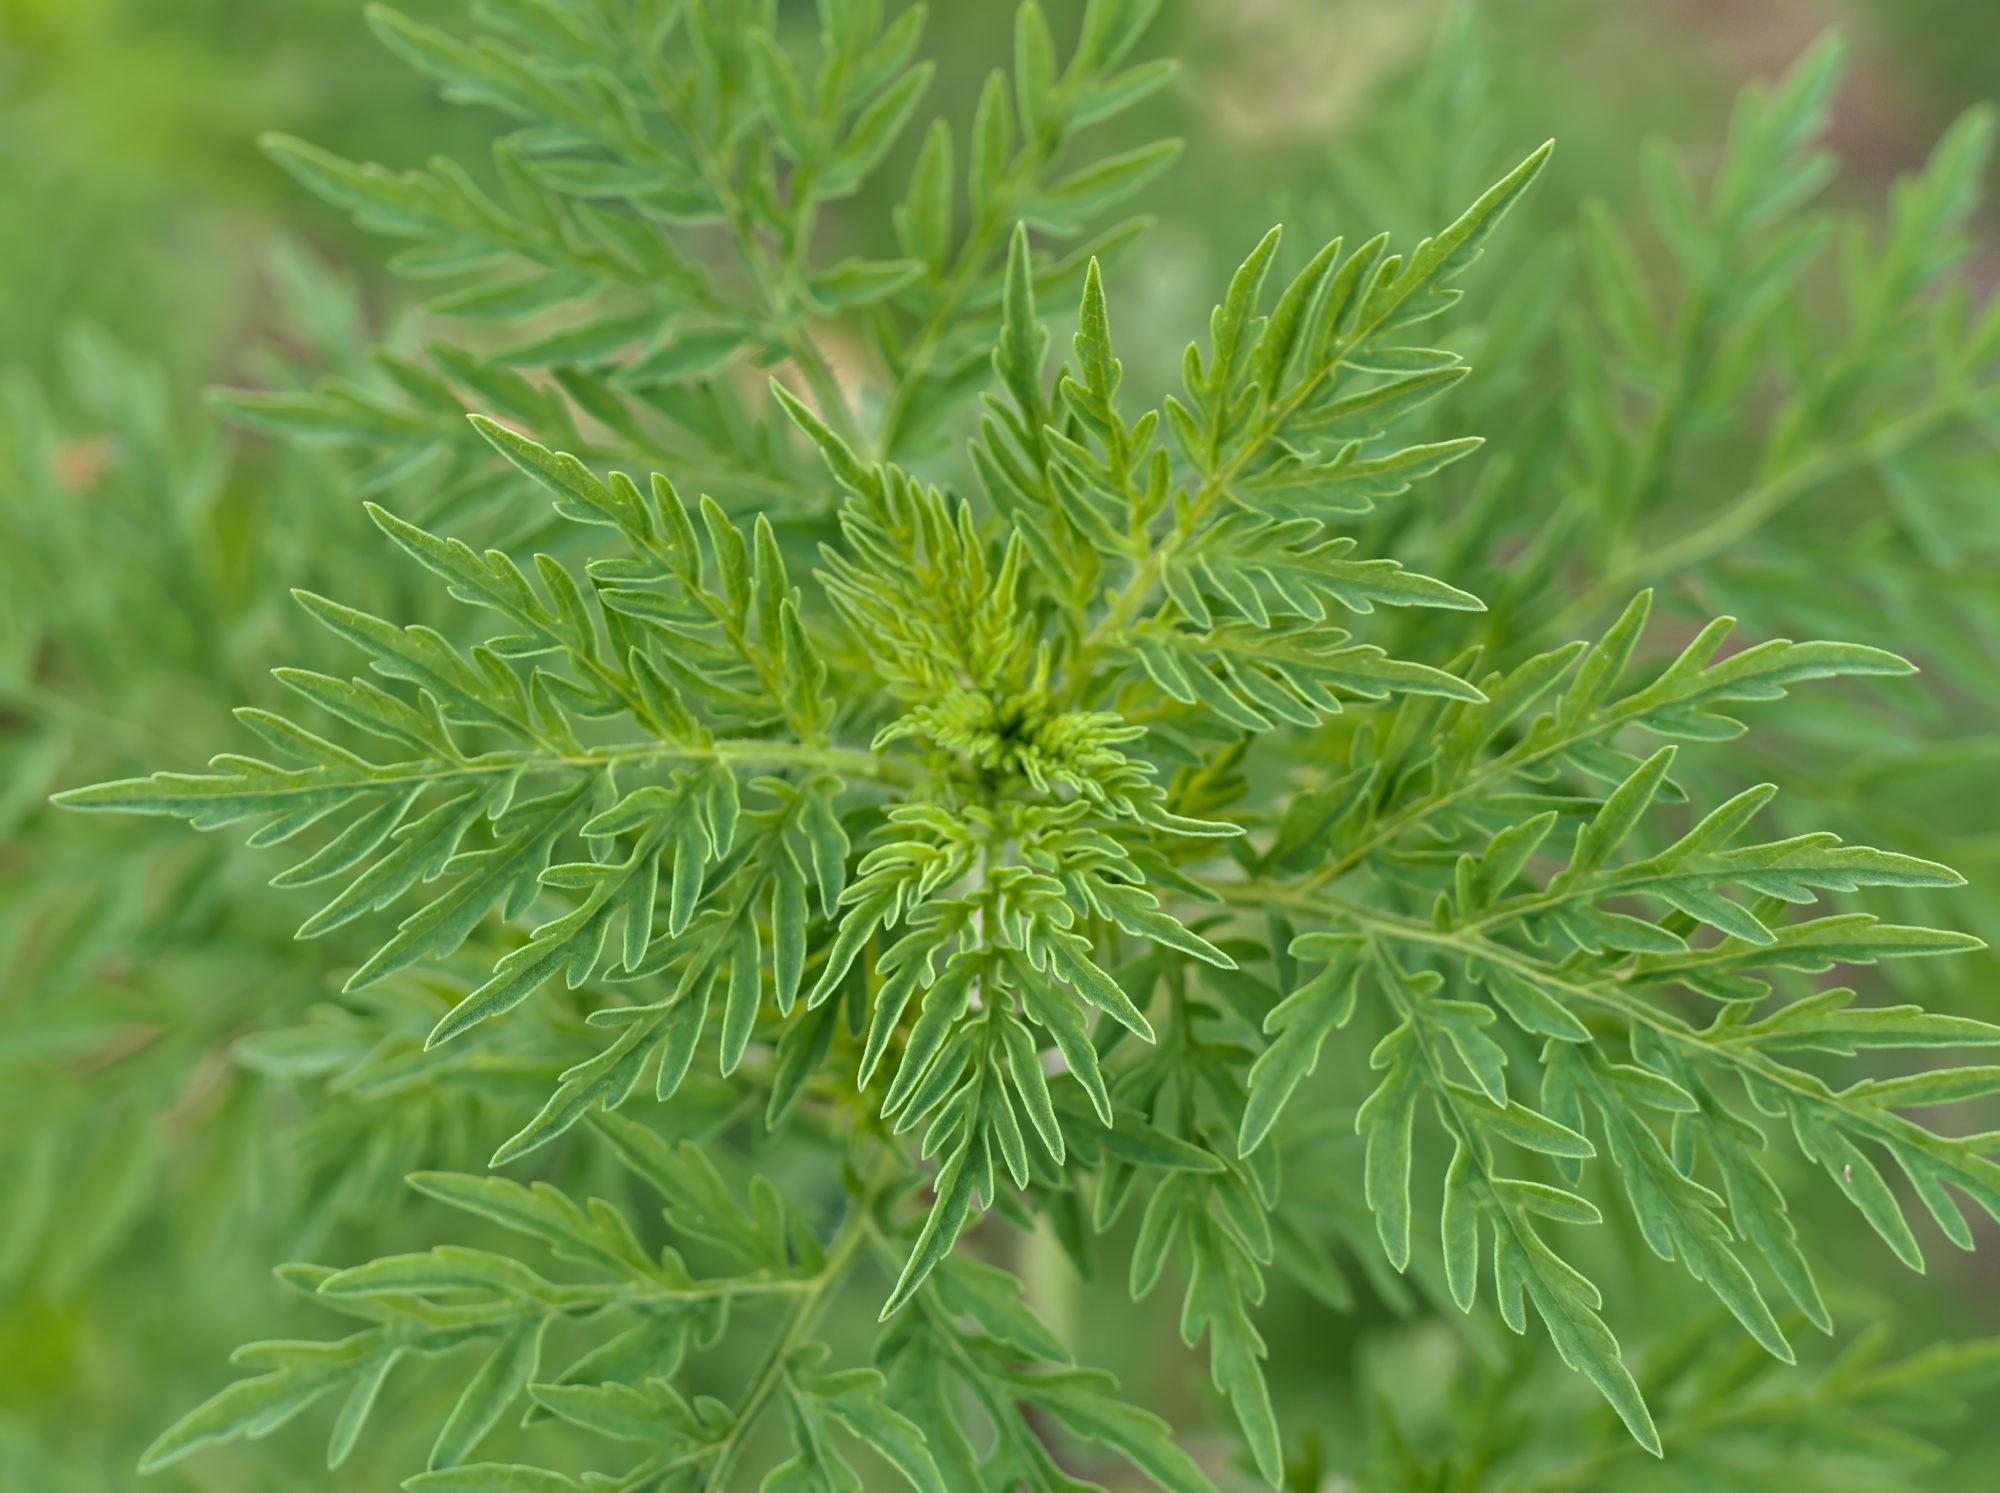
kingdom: Plantae
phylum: Tracheophyta
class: Magnoliopsida
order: Asterales
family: Asteraceae
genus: Ambrosia
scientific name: Ambrosia artemisiifolia
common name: Annual ragweed
